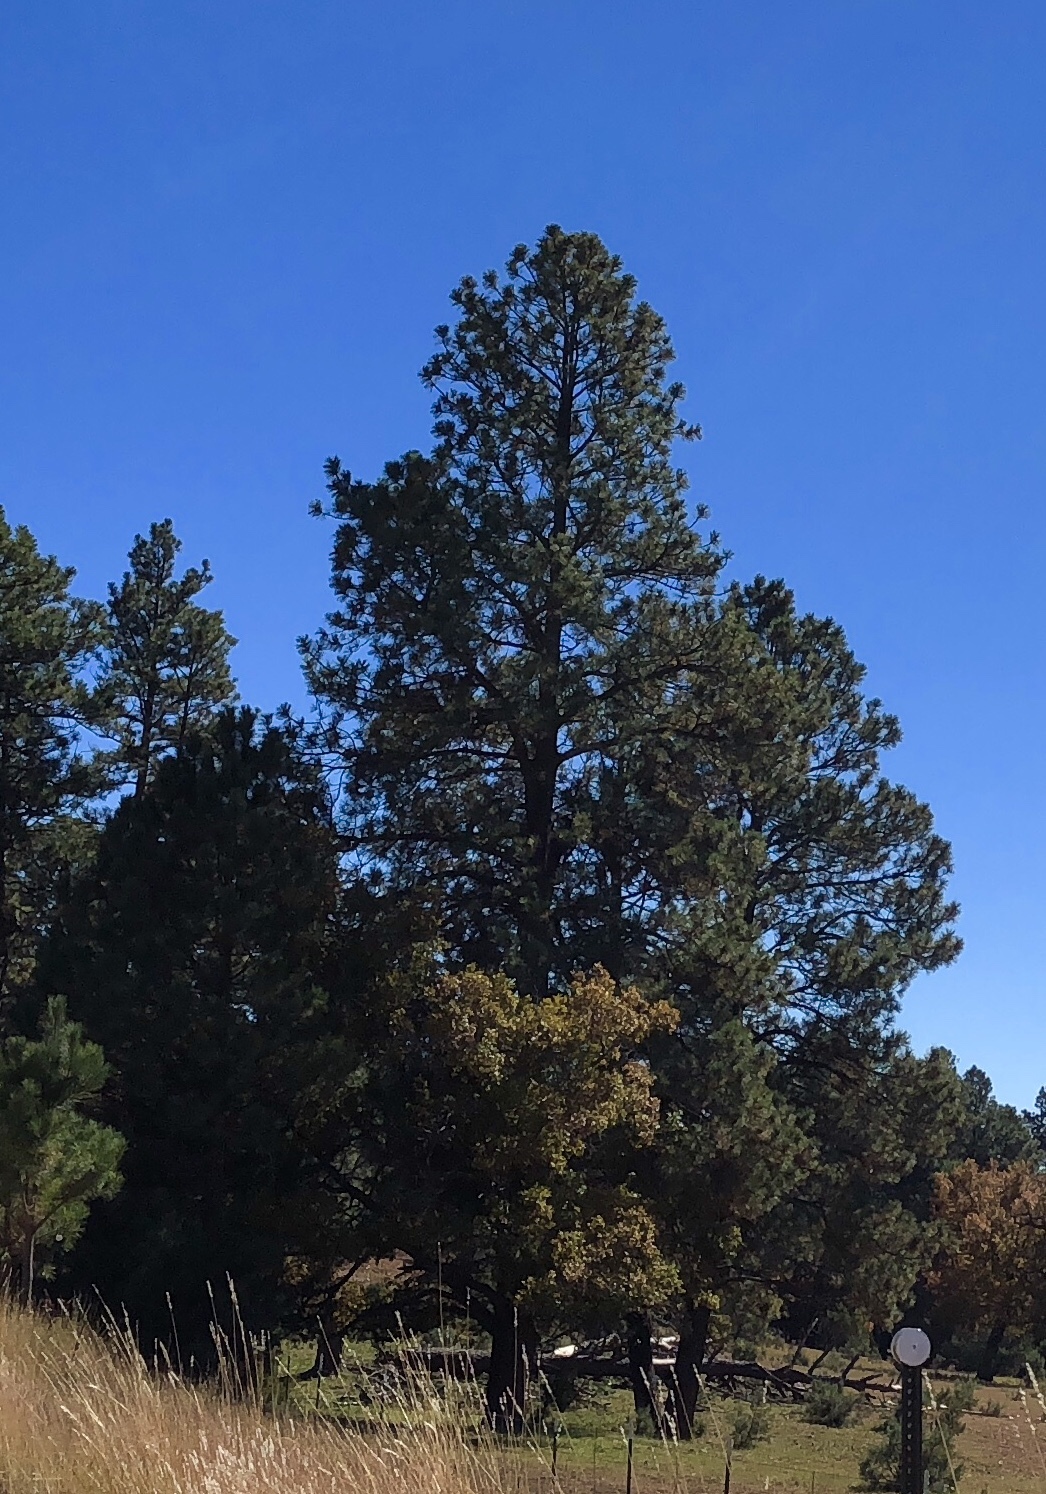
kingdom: Plantae
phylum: Tracheophyta
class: Pinopsida
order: Pinales
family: Pinaceae
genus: Pinus
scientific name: Pinus ponderosa
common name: Western yellow-pine
